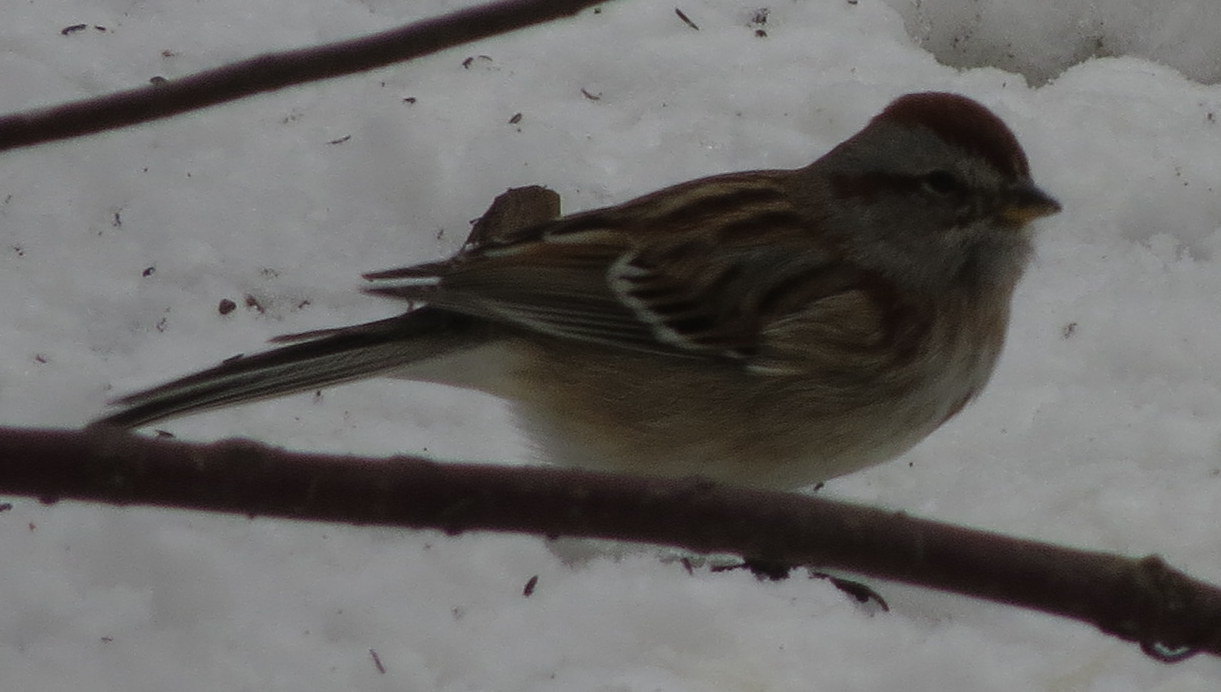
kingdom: Animalia
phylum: Chordata
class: Aves
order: Passeriformes
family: Passerellidae
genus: Spizelloides
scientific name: Spizelloides arborea
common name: American tree sparrow
